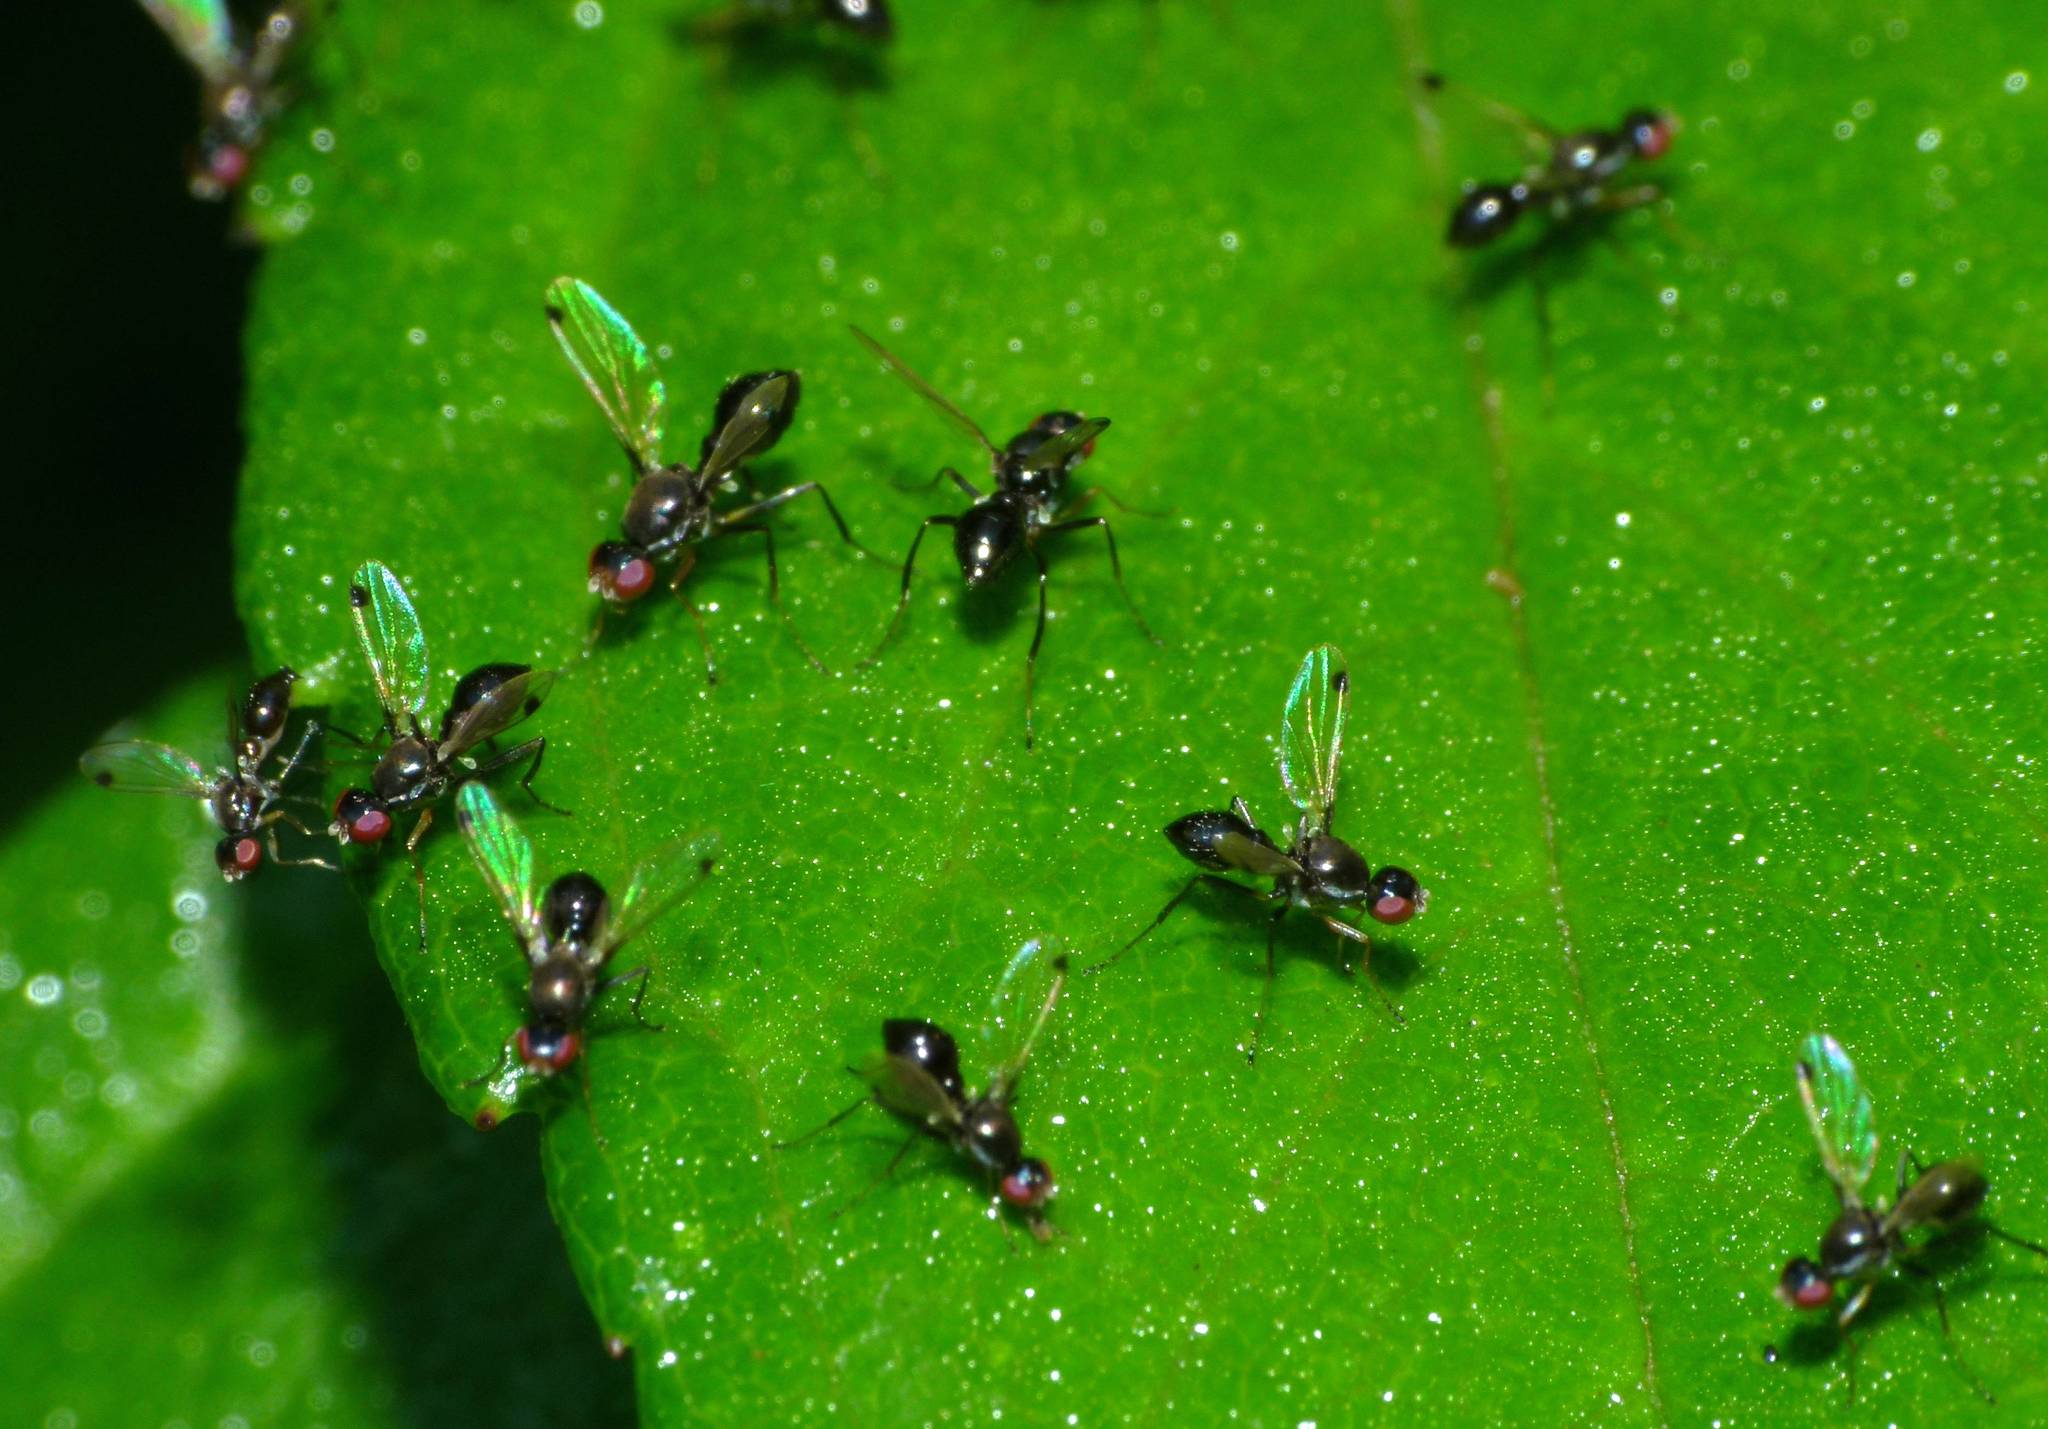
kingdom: Animalia
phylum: Arthropoda
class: Insecta
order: Diptera
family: Sepsidae
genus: Parapalaeosepsis
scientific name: Parapalaeosepsis plebeia
